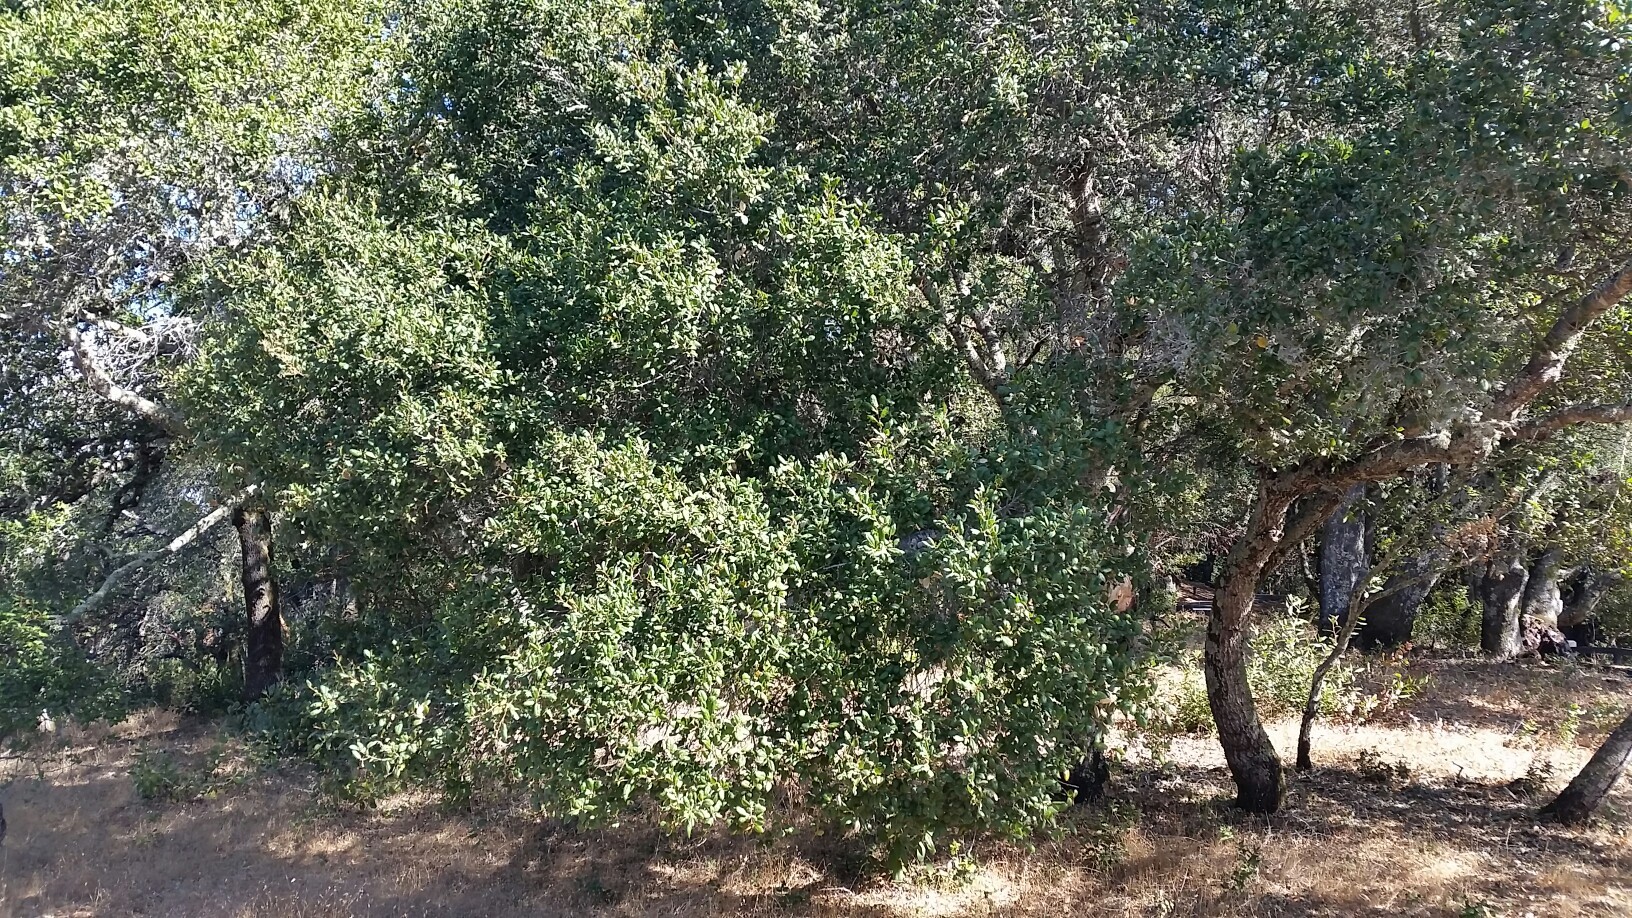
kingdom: Plantae
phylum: Tracheophyta
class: Magnoliopsida
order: Fagales
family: Fagaceae
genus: Quercus
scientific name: Quercus agrifolia
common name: California live oak
